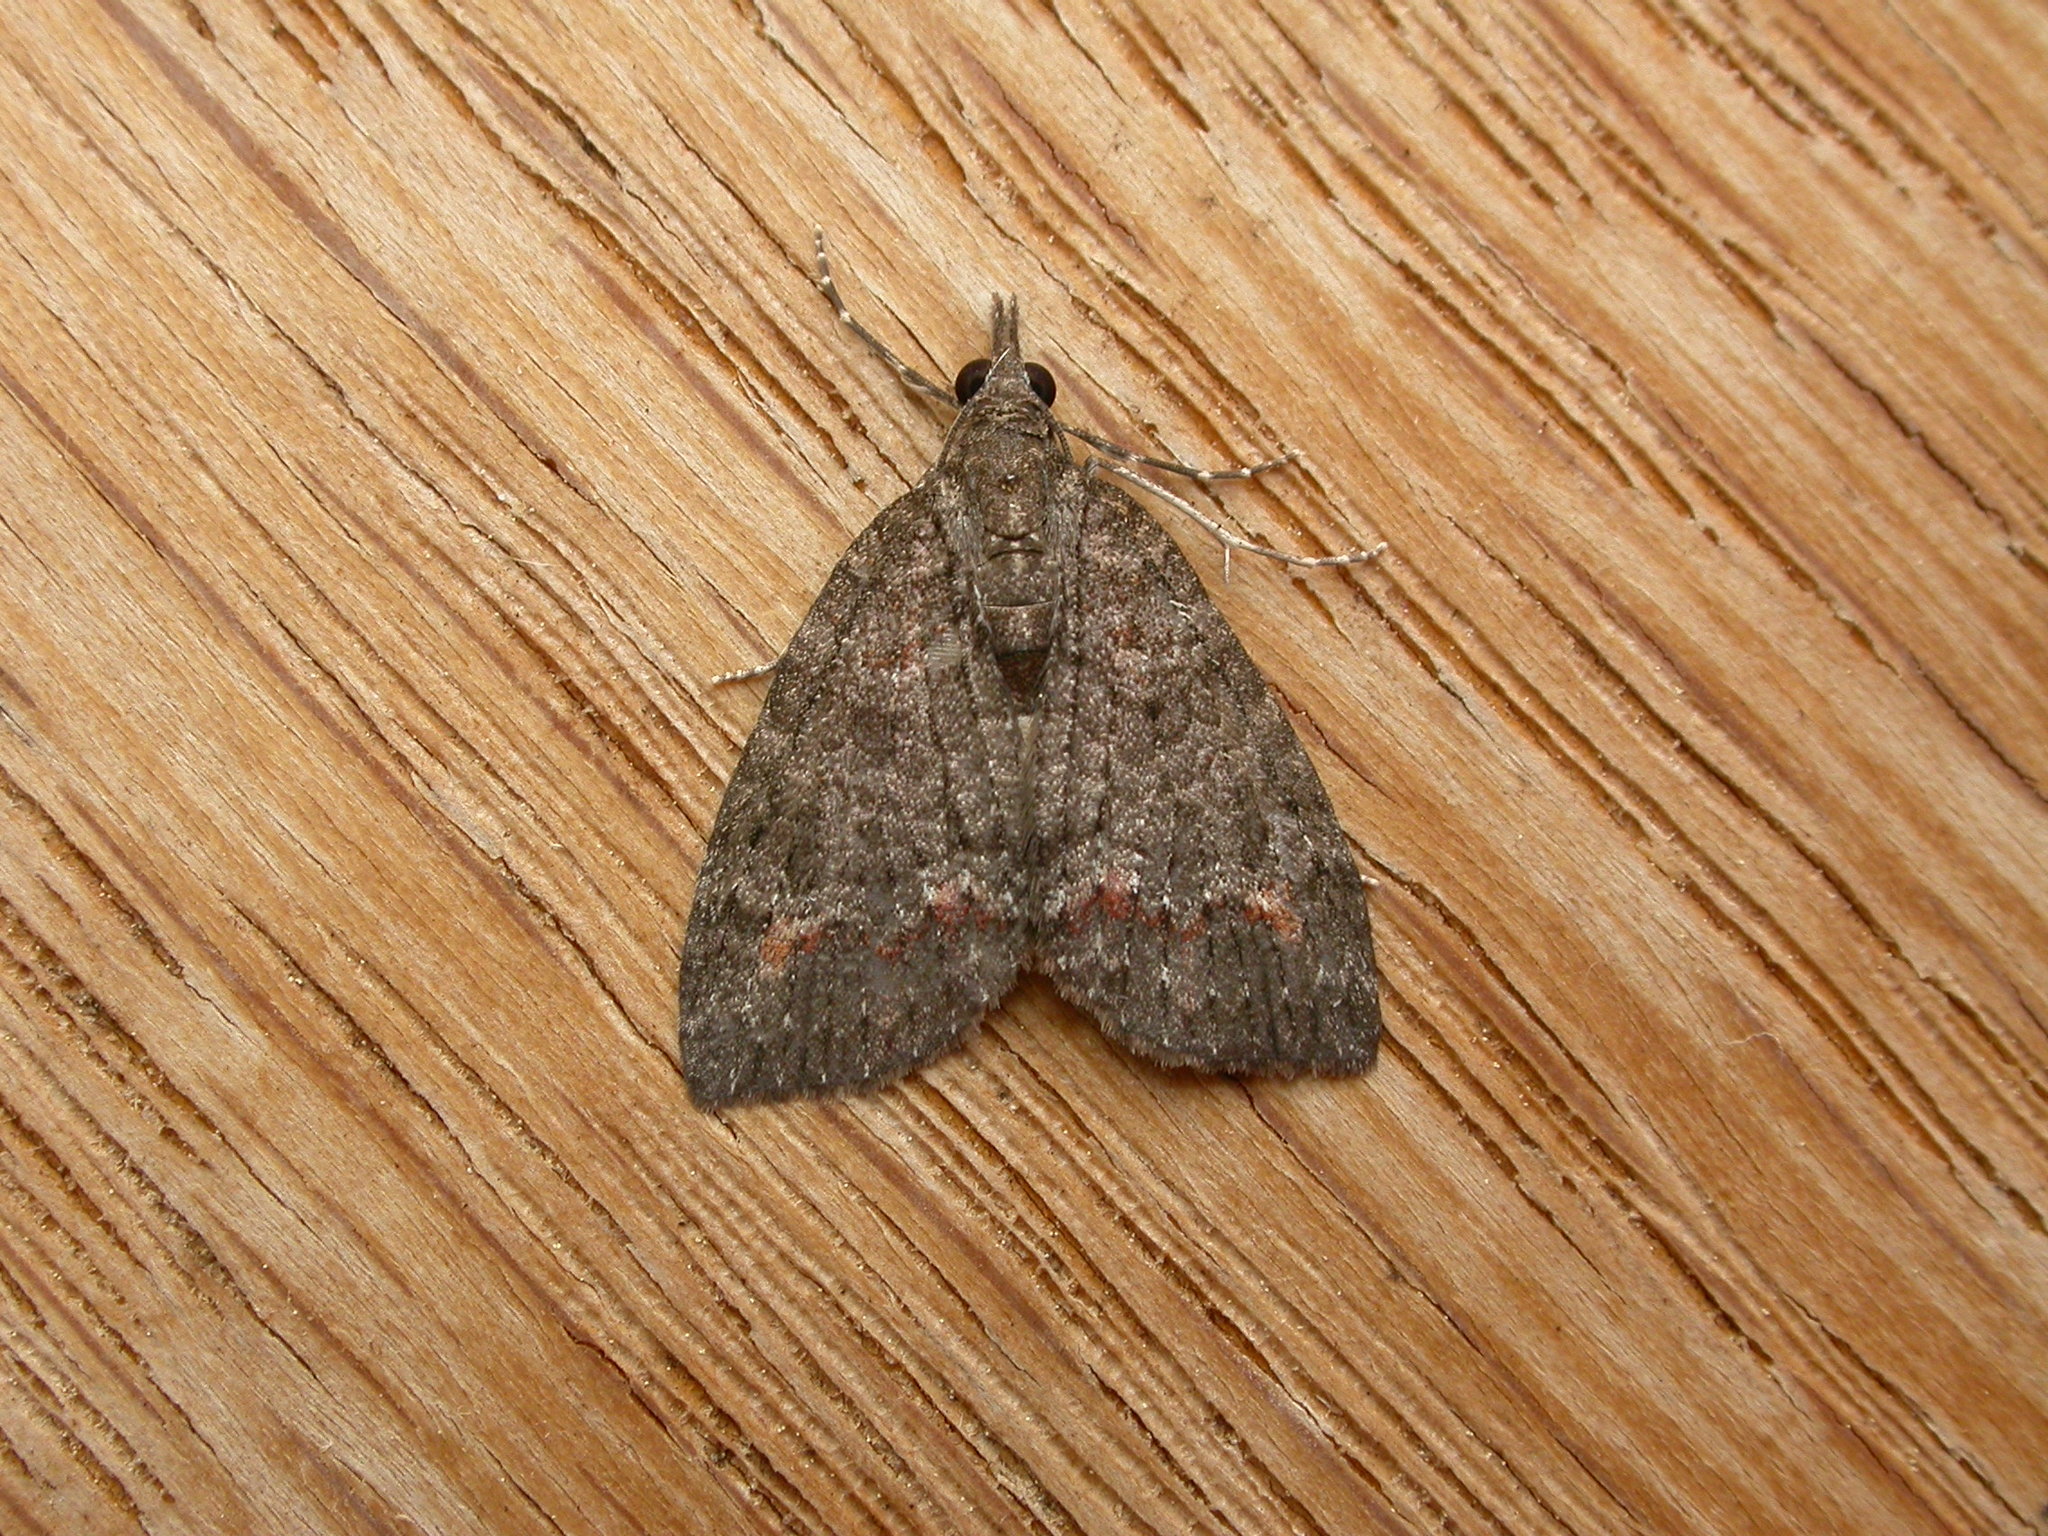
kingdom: Animalia
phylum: Arthropoda
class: Insecta
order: Lepidoptera
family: Geometridae
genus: Microdes
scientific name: Microdes squamulata
